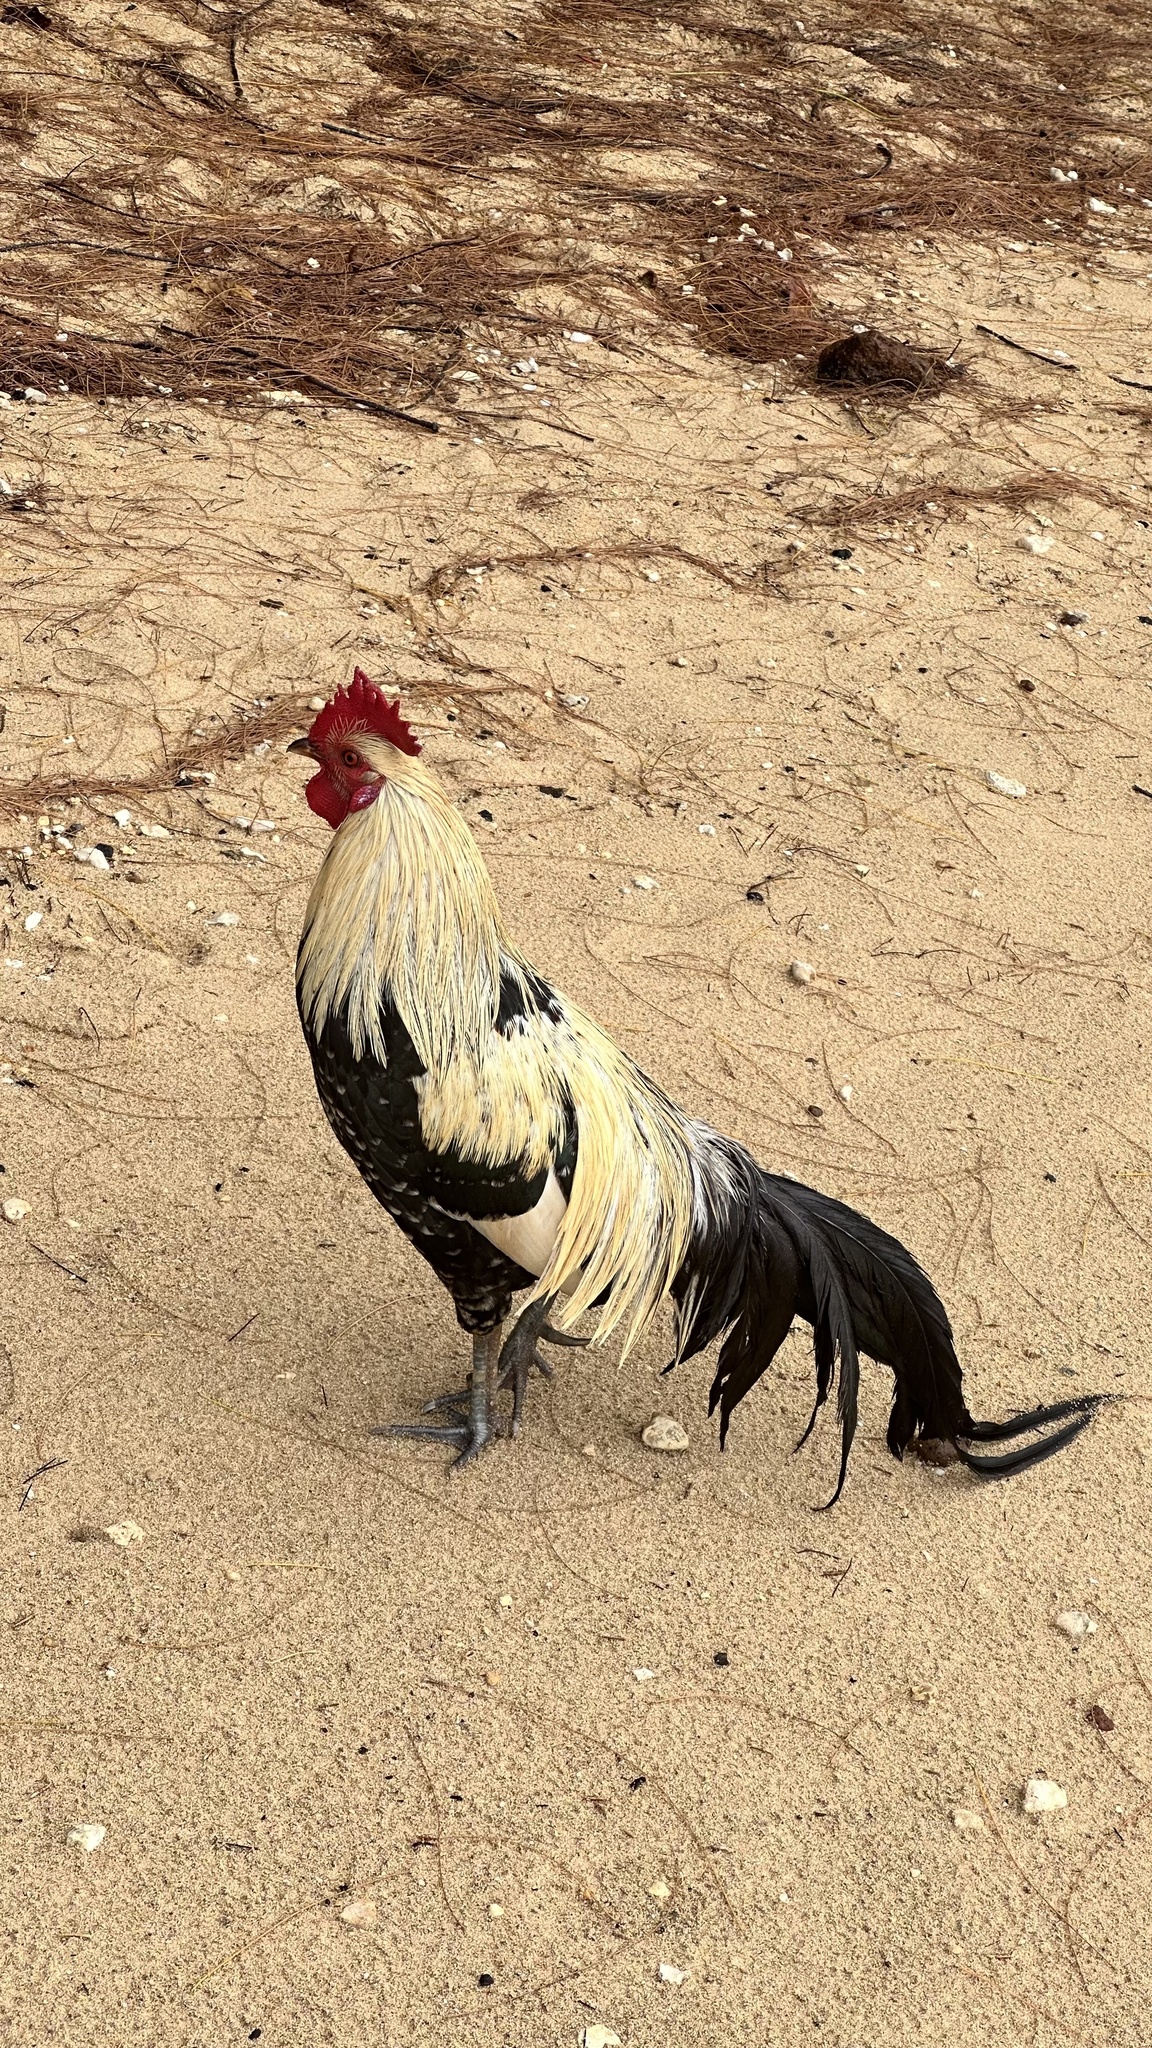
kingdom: Animalia
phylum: Chordata
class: Aves
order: Galliformes
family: Phasianidae
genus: Gallus
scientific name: Gallus gallus
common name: Red junglefowl
